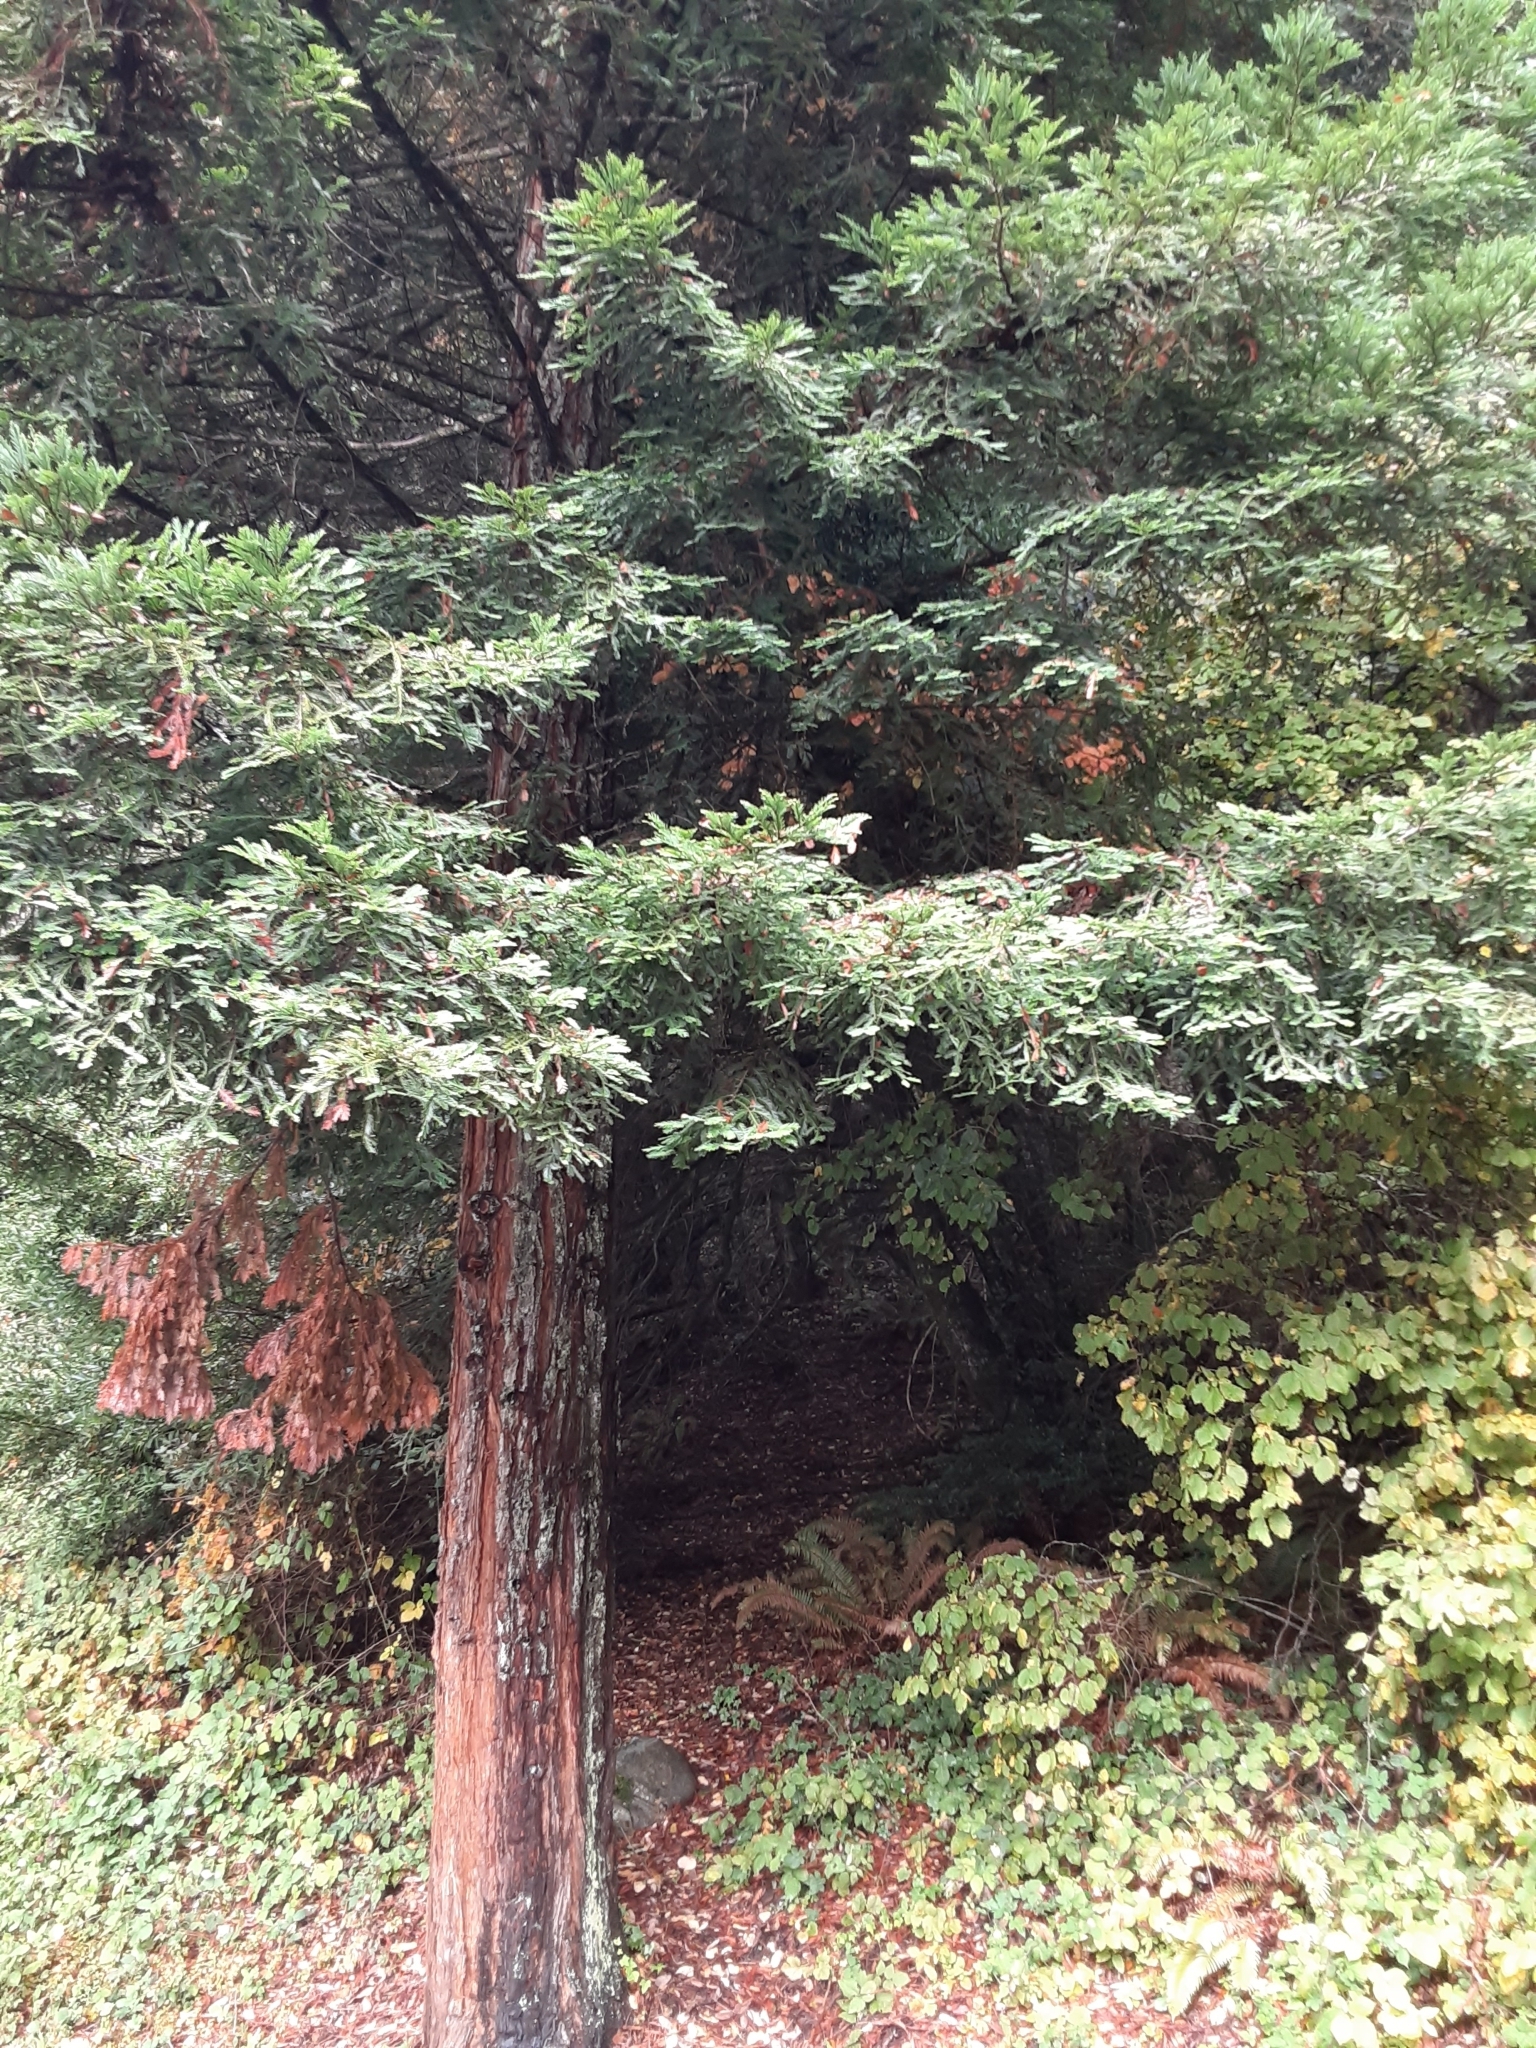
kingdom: Plantae
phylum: Tracheophyta
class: Pinopsida
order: Pinales
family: Cupressaceae
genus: Sequoia
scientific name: Sequoia sempervirens
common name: Coast redwood
